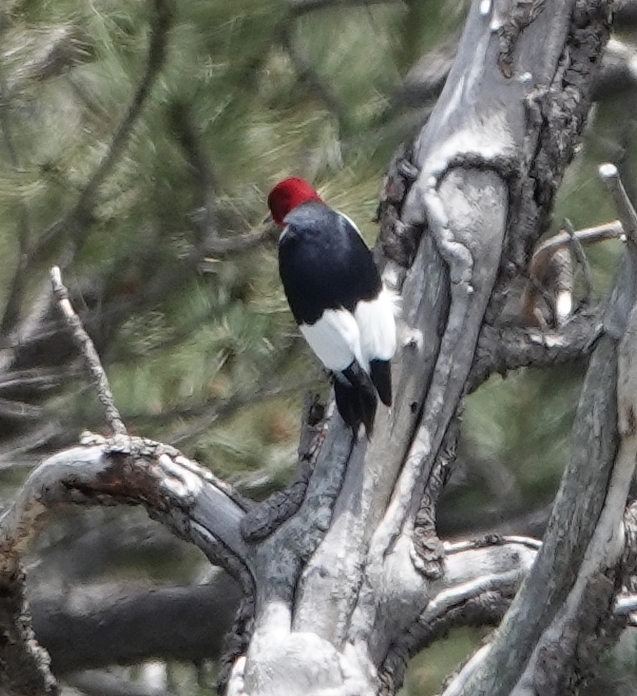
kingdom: Animalia
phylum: Chordata
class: Aves
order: Piciformes
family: Picidae
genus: Melanerpes
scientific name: Melanerpes erythrocephalus
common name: Red-headed woodpecker
